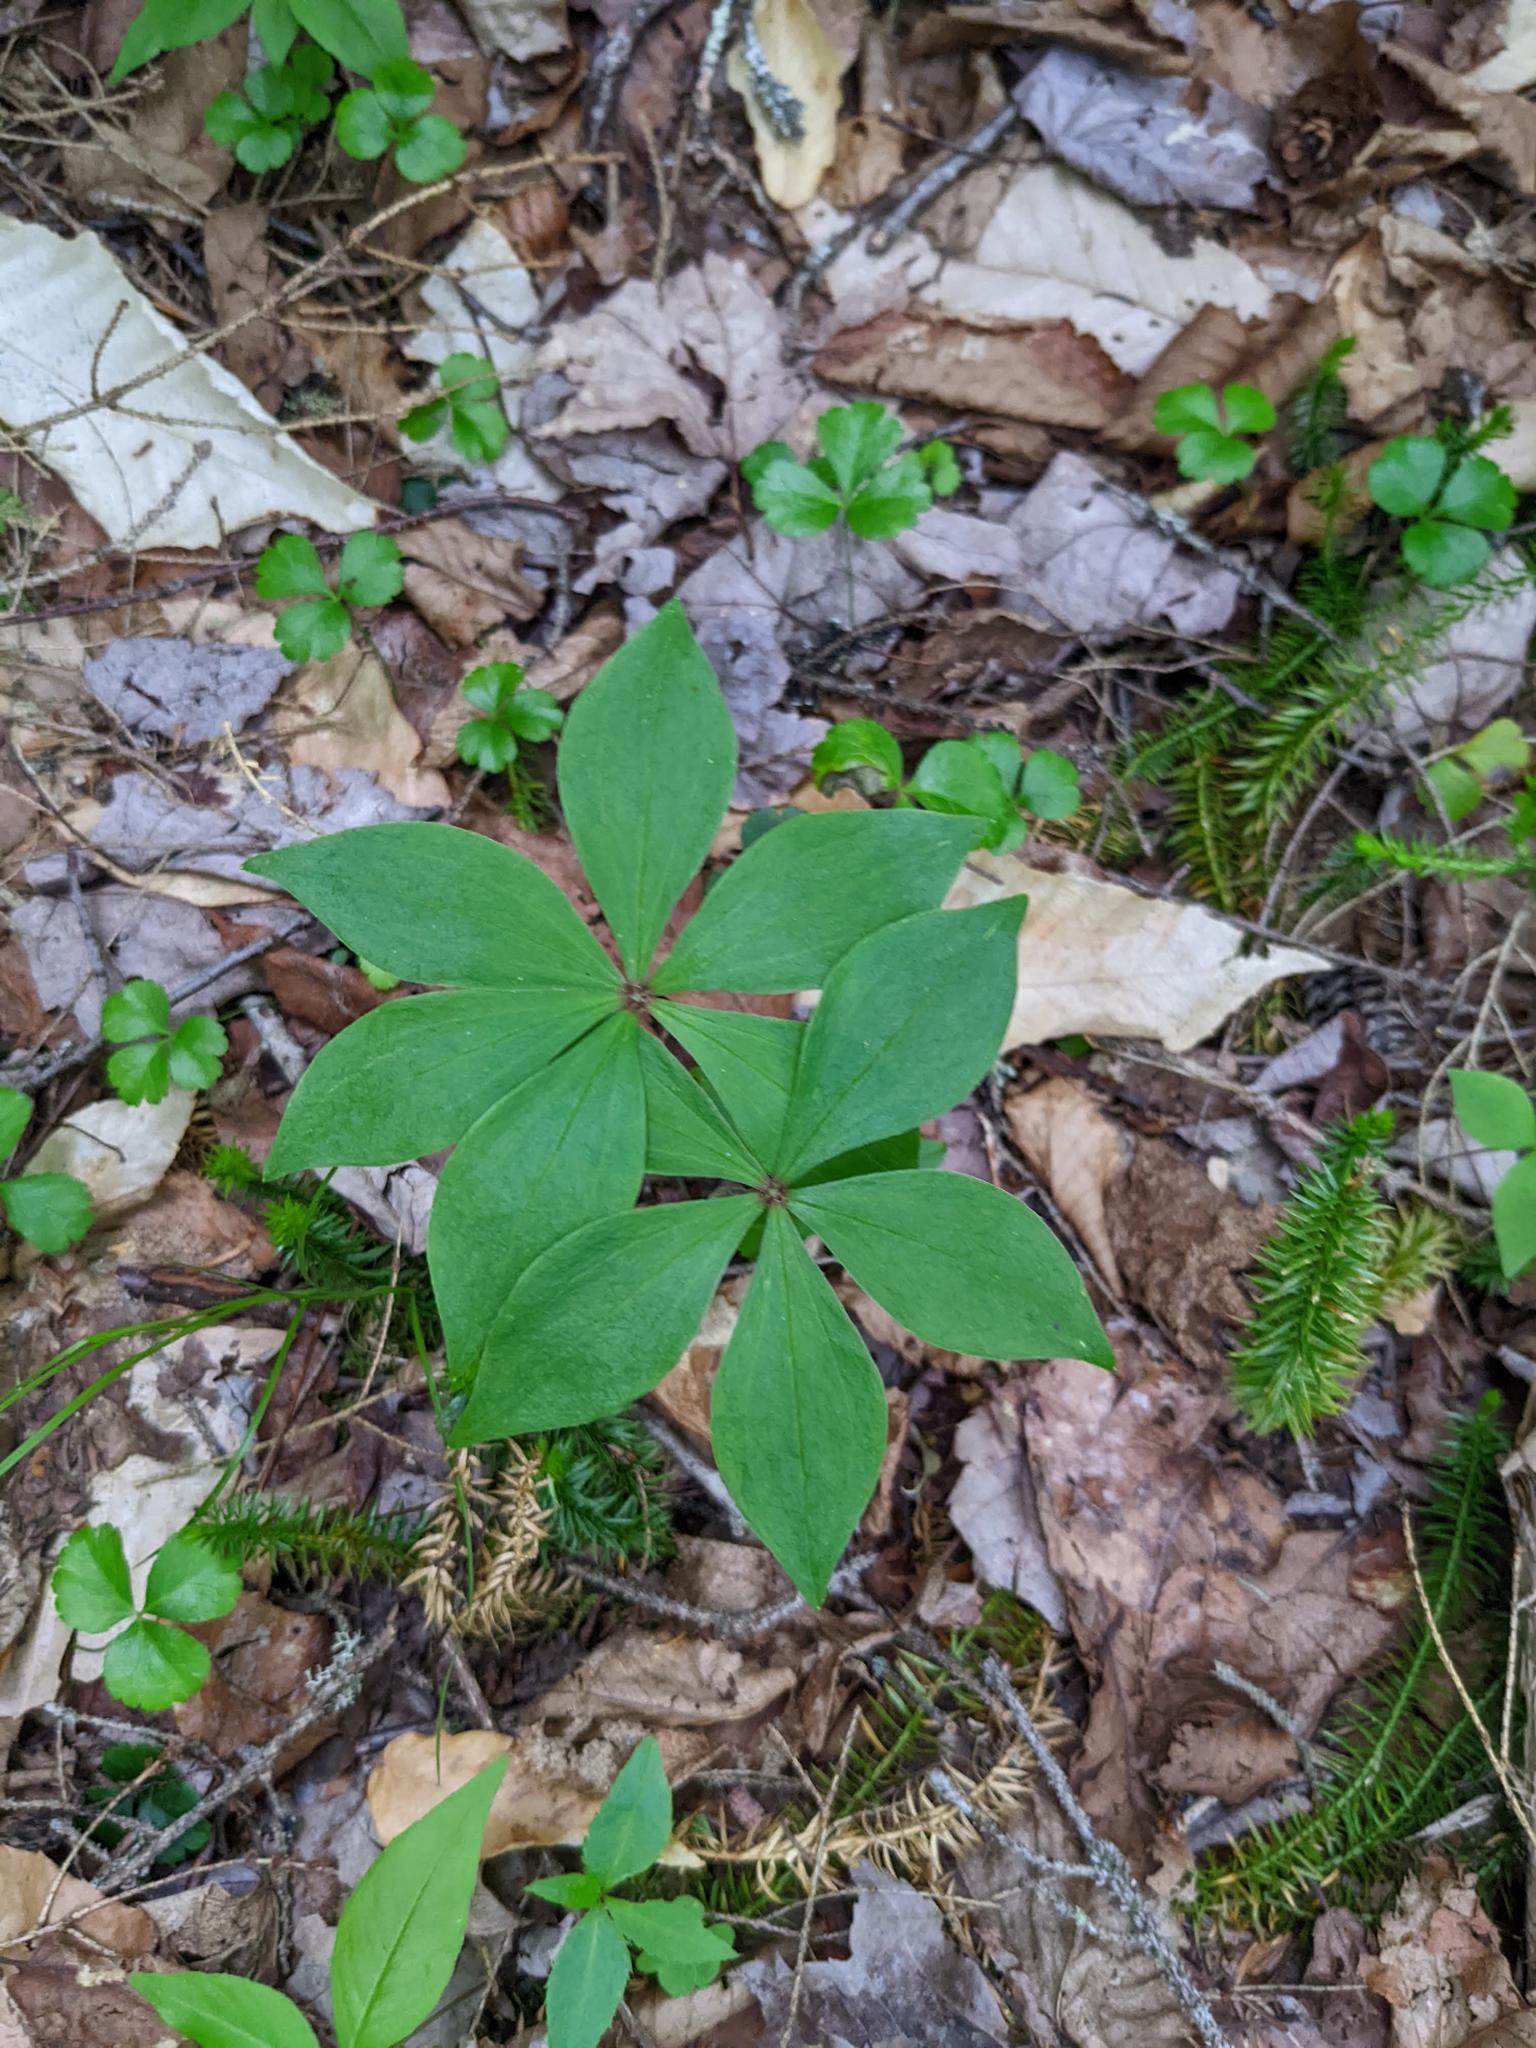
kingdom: Plantae
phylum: Tracheophyta
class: Liliopsida
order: Liliales
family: Liliaceae
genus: Medeola
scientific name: Medeola virginiana
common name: Indian cucumber-root
